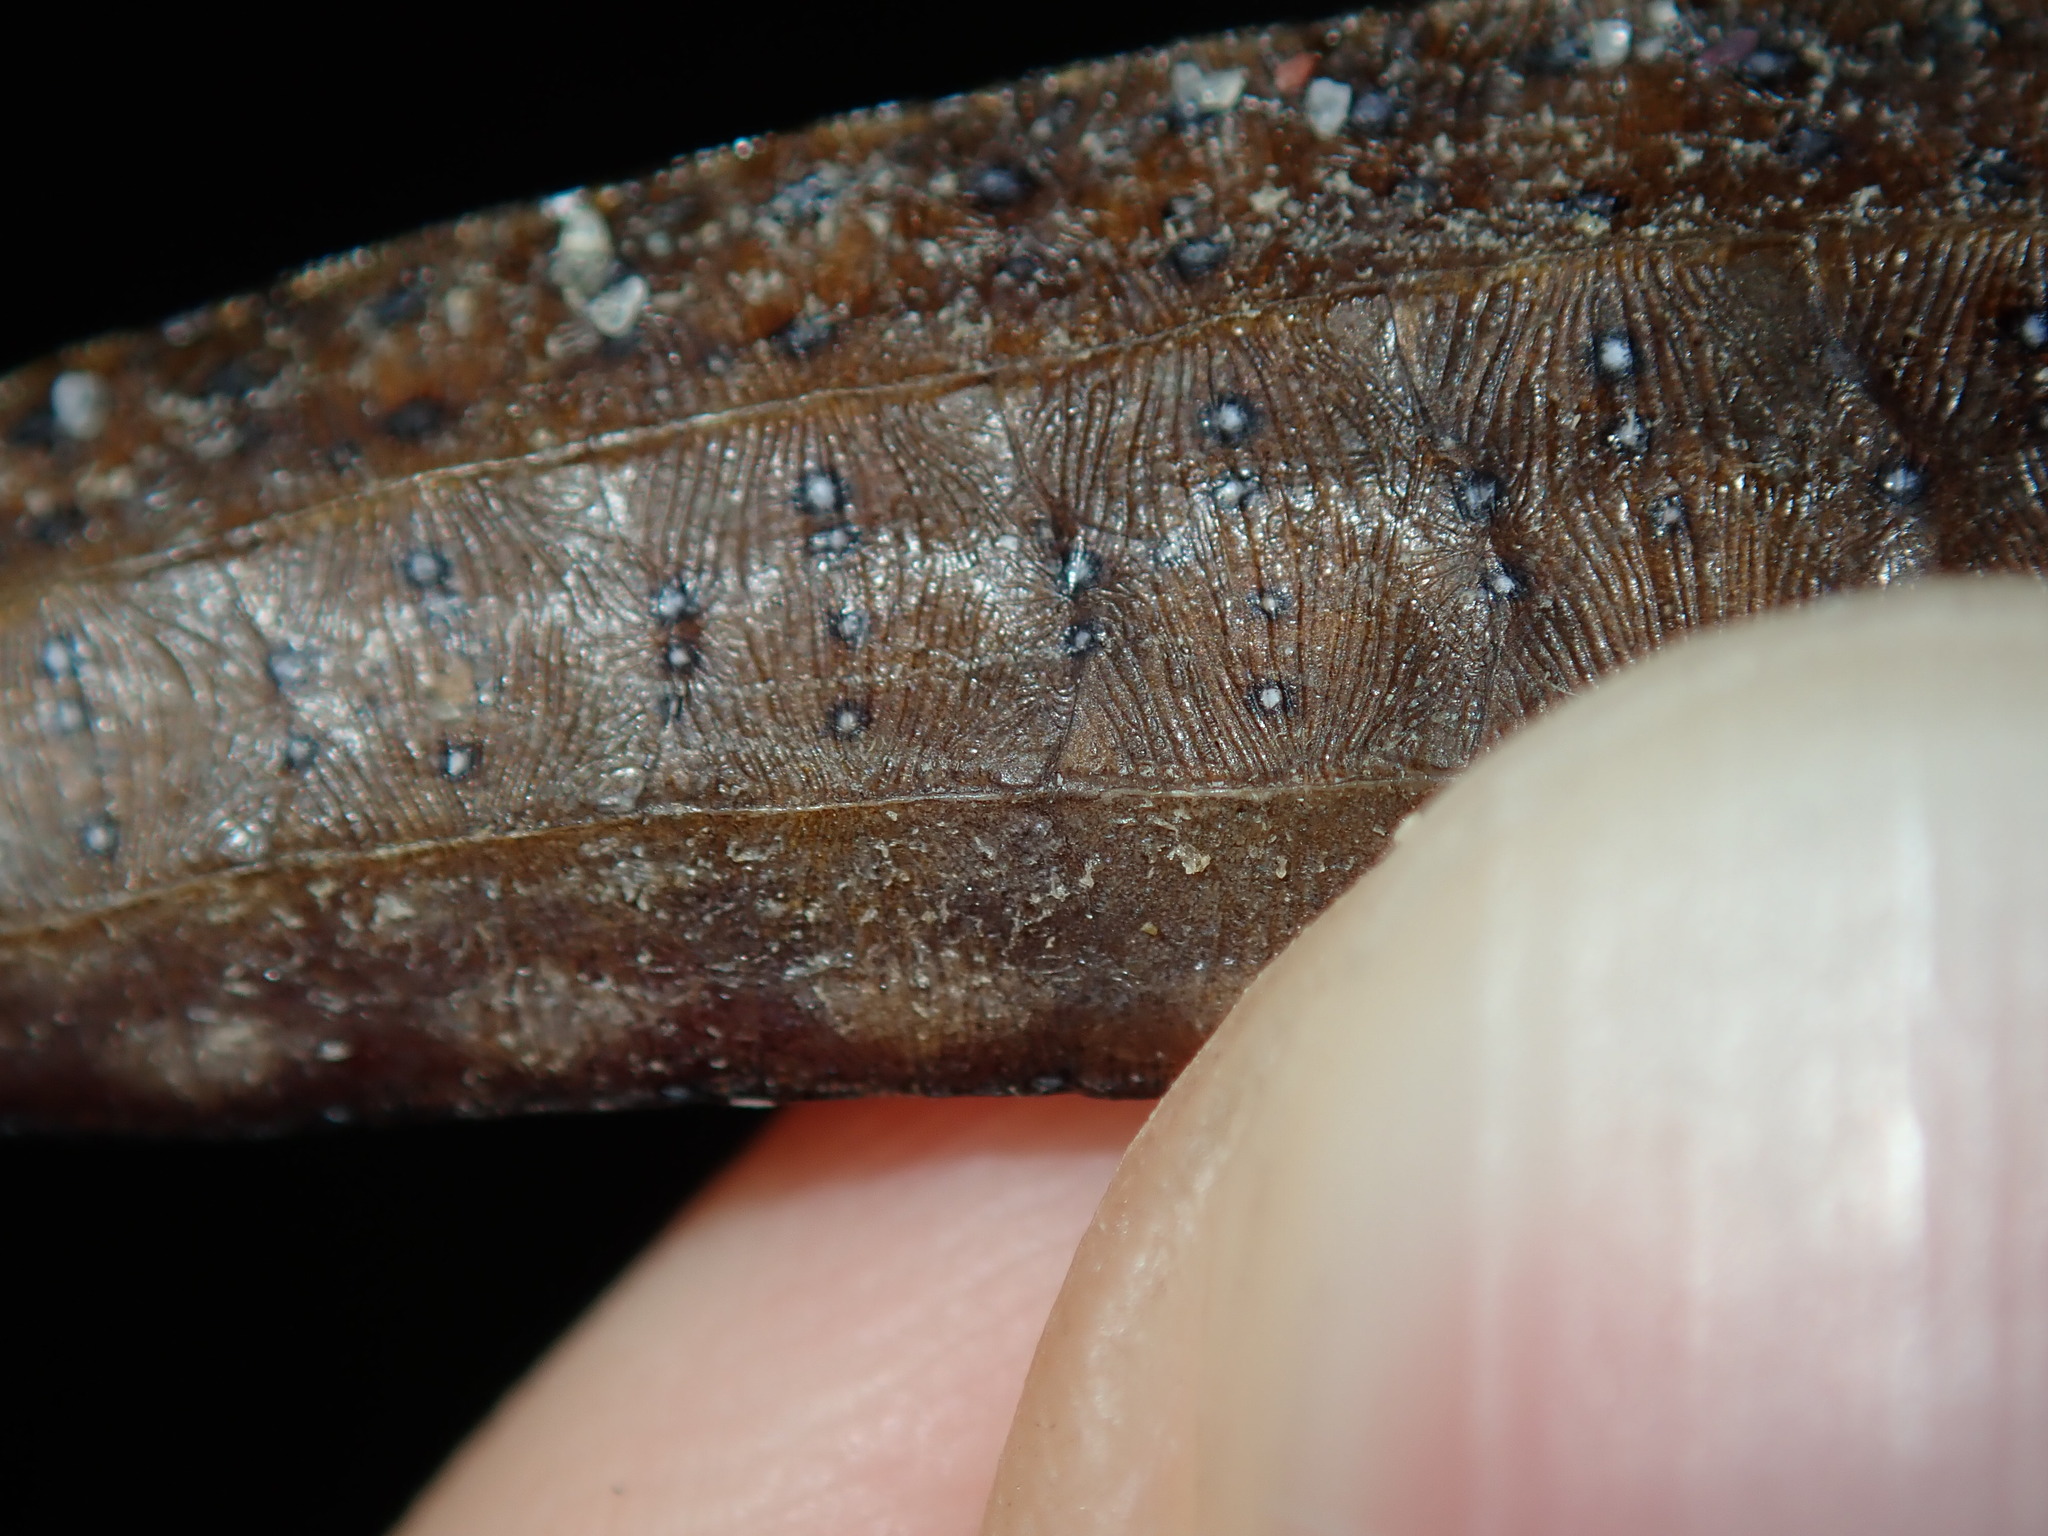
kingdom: Animalia
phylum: Chordata
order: Syngnathiformes
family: Syngnathidae
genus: Histiogamphelus
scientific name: Histiogamphelus briggsii
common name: Brigg's northern pipefish
